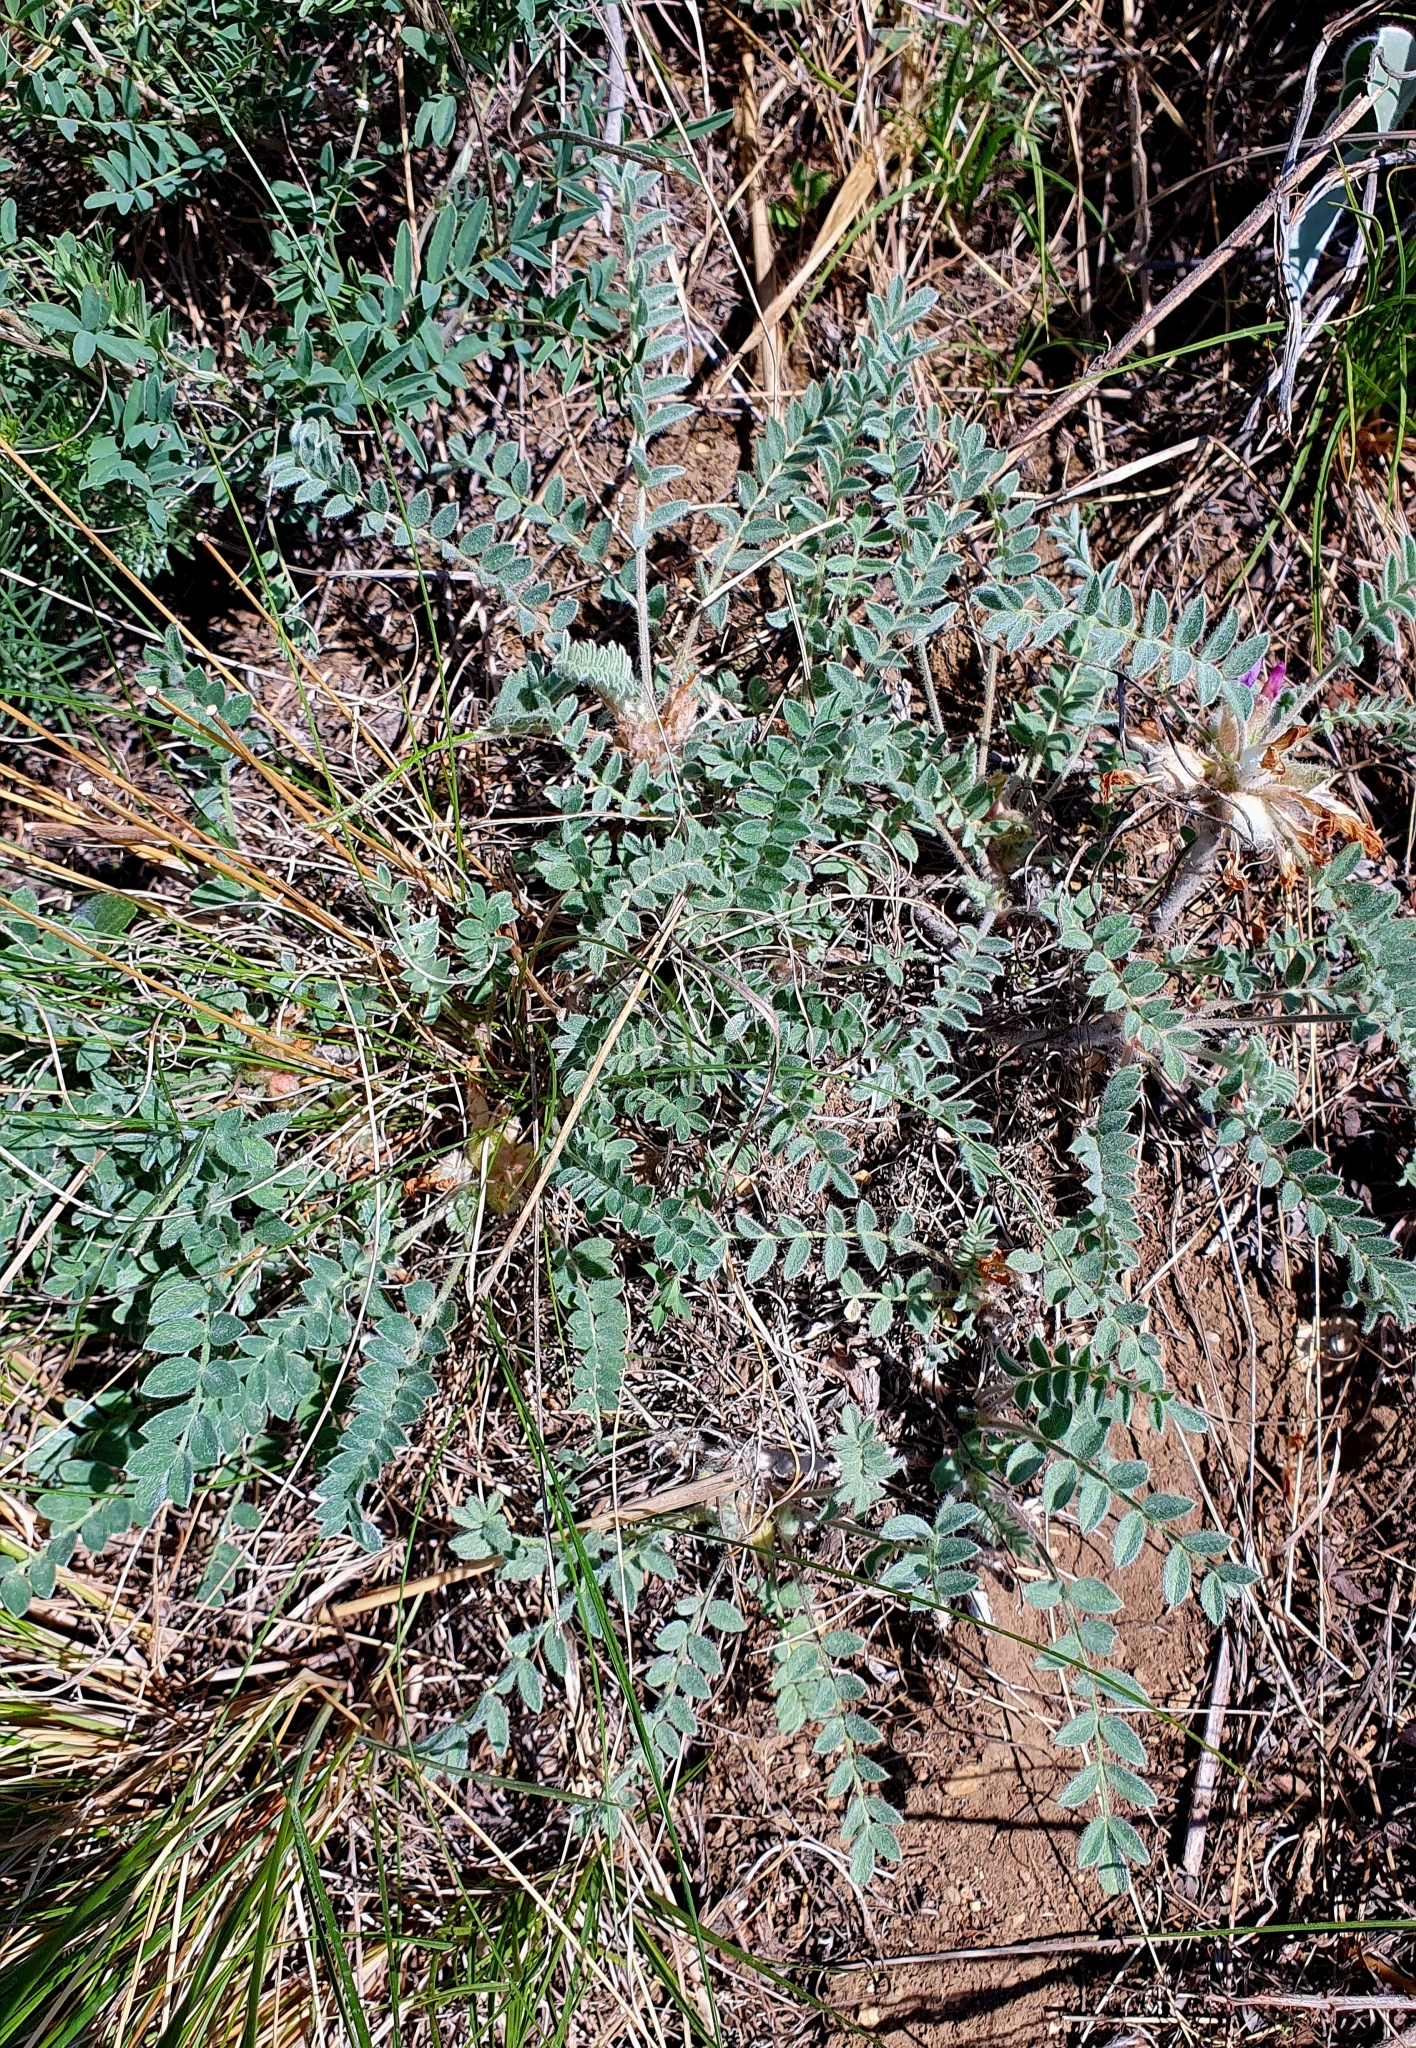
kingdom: Plantae
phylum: Tracheophyta
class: Magnoliopsida
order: Fabales
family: Fabaceae
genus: Astragalus
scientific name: Astragalus testiculatus
